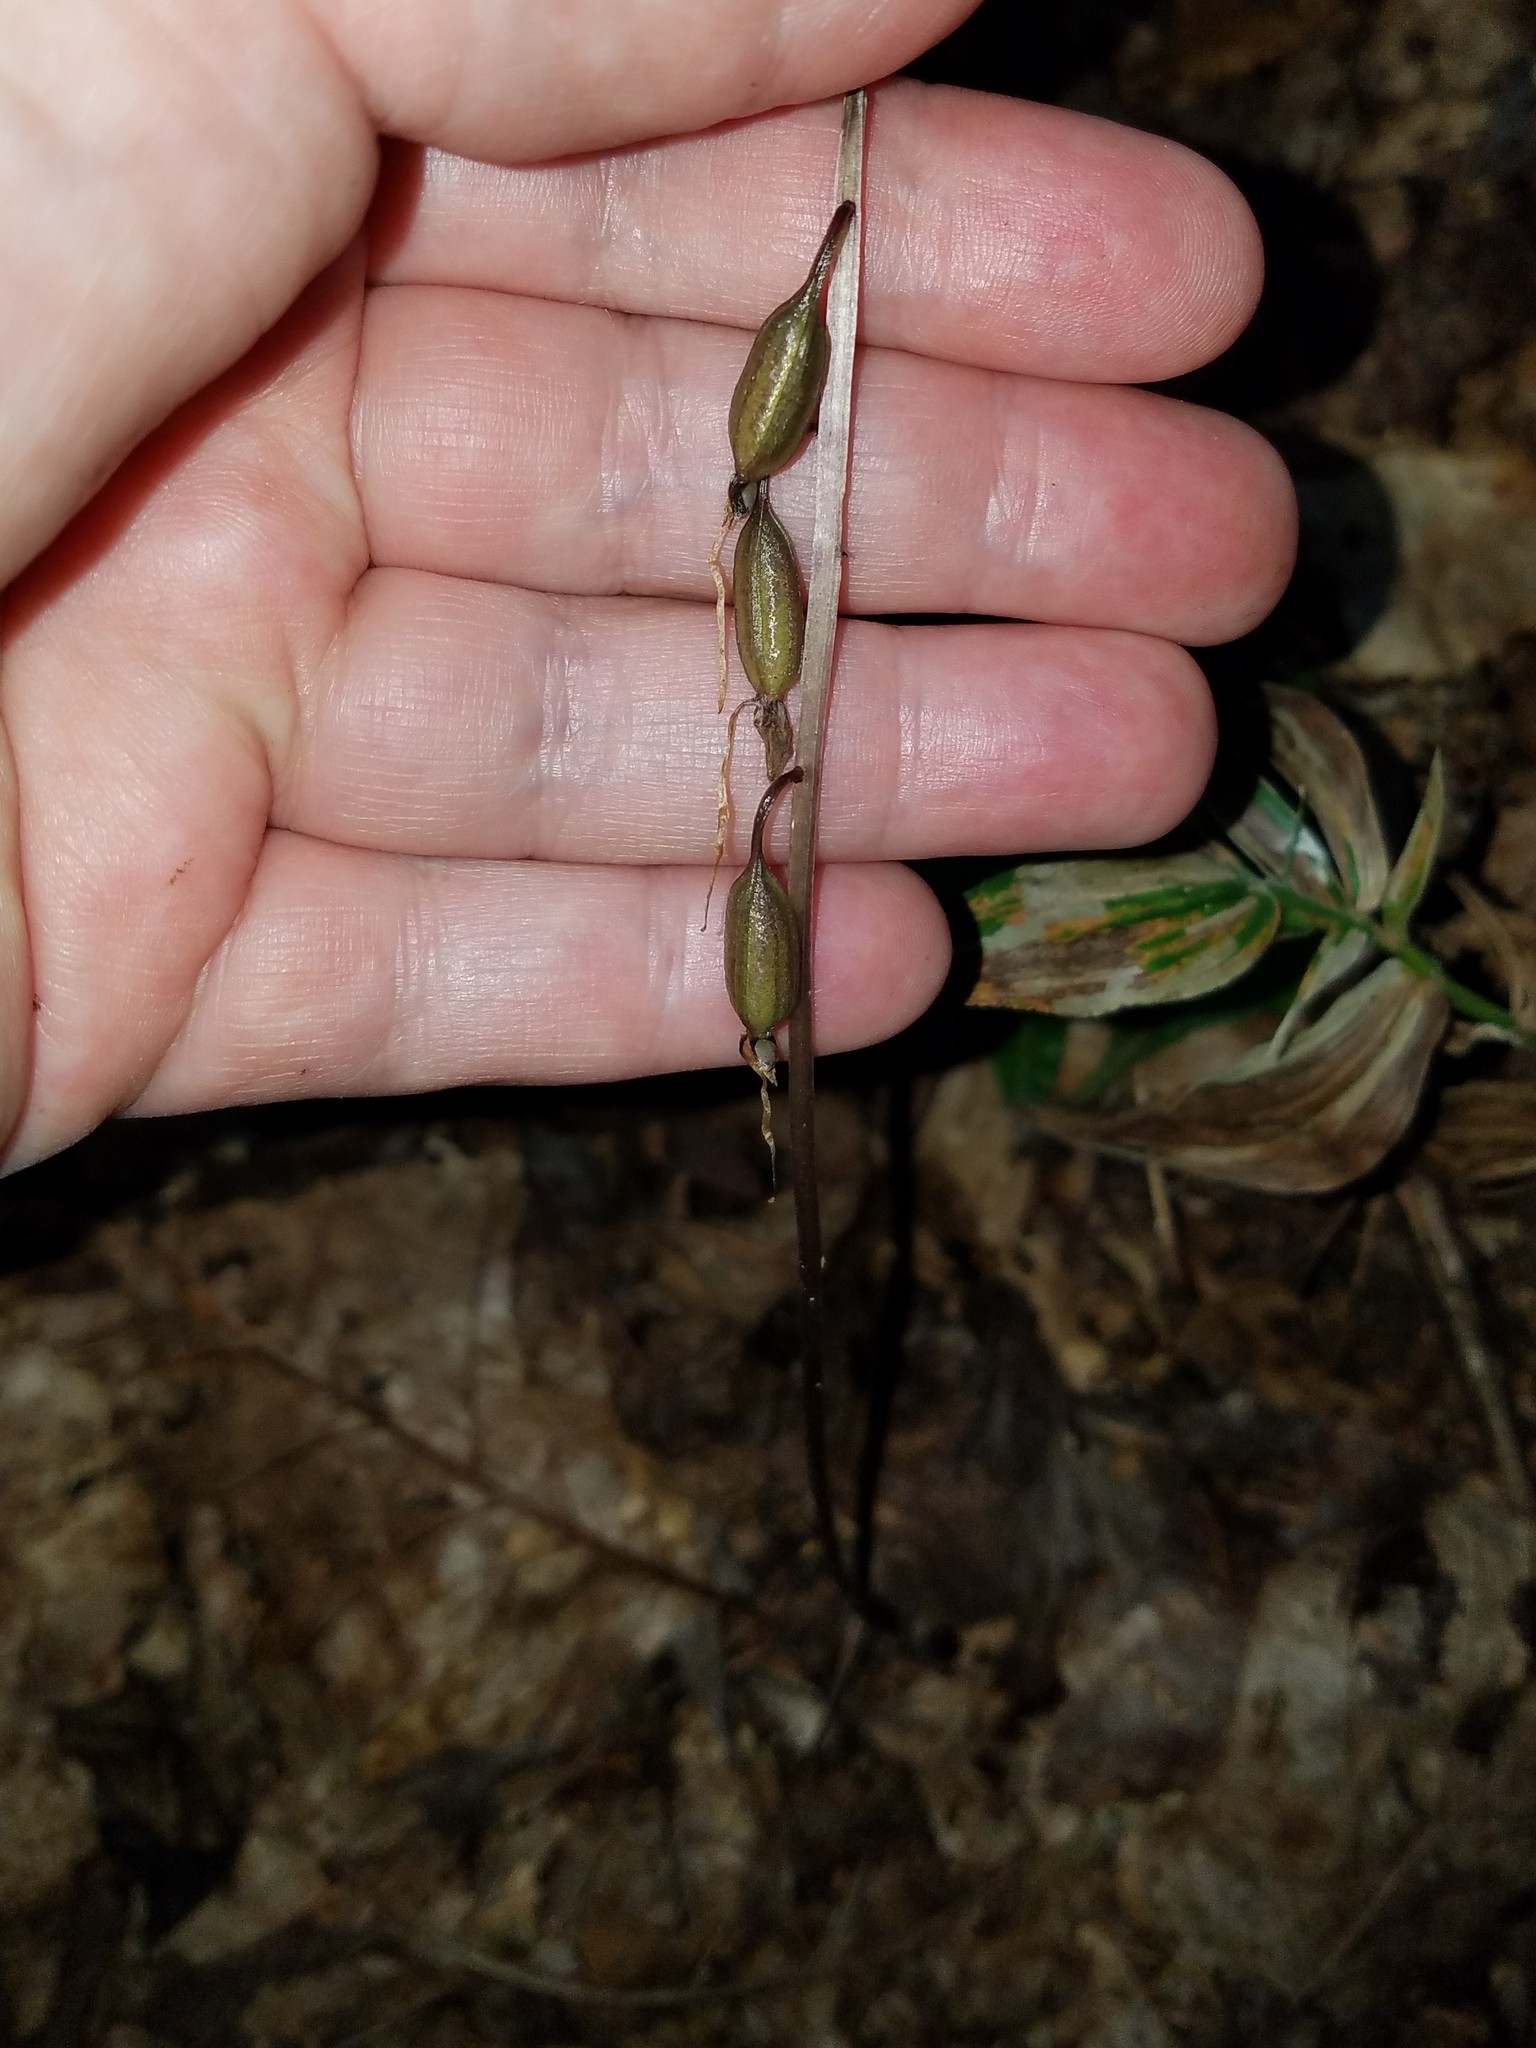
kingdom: Plantae
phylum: Tracheophyta
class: Liliopsida
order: Asparagales
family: Orchidaceae
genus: Tipularia
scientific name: Tipularia discolor
